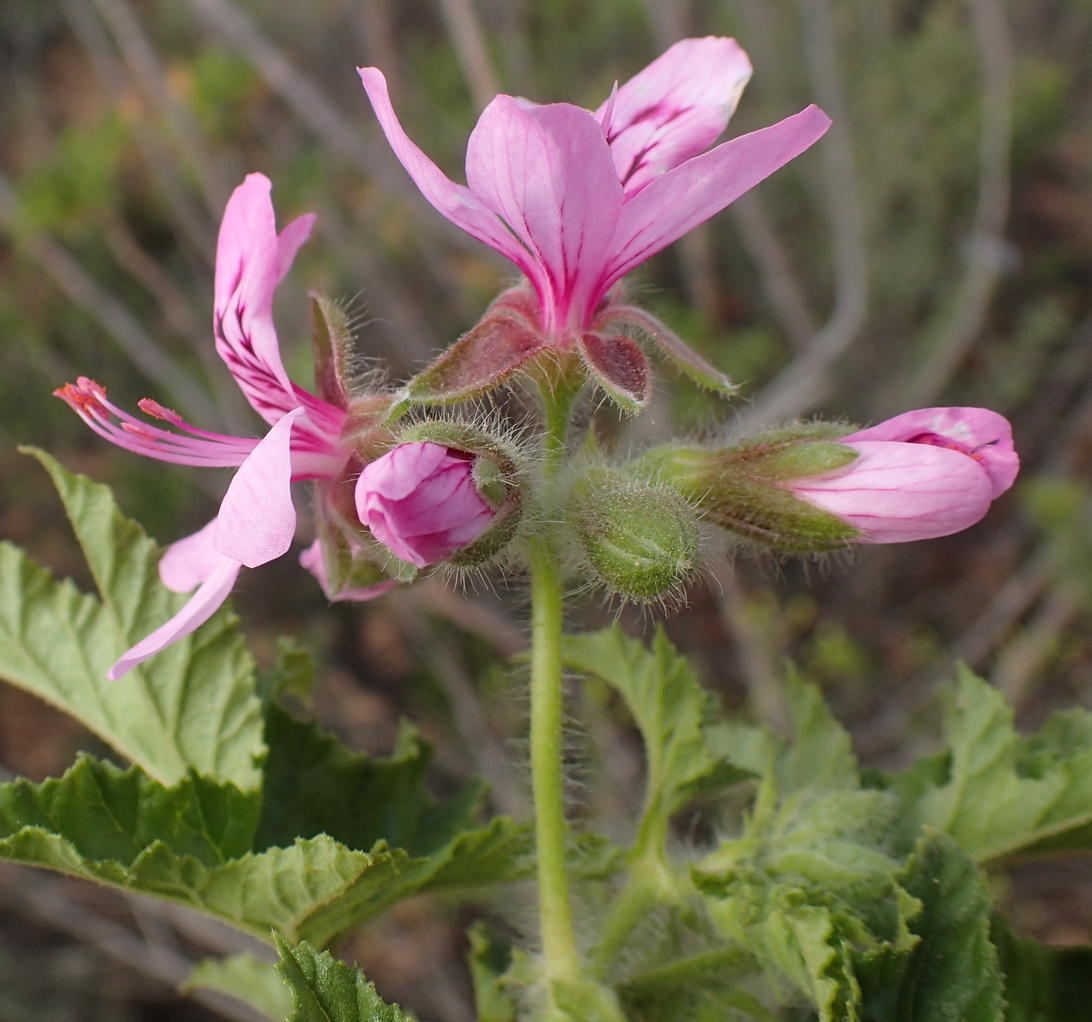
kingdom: Plantae
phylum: Tracheophyta
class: Magnoliopsida
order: Geraniales
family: Geraniaceae
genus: Pelargonium
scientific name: Pelargonium glutinosum
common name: Pheasant-foot geranium
